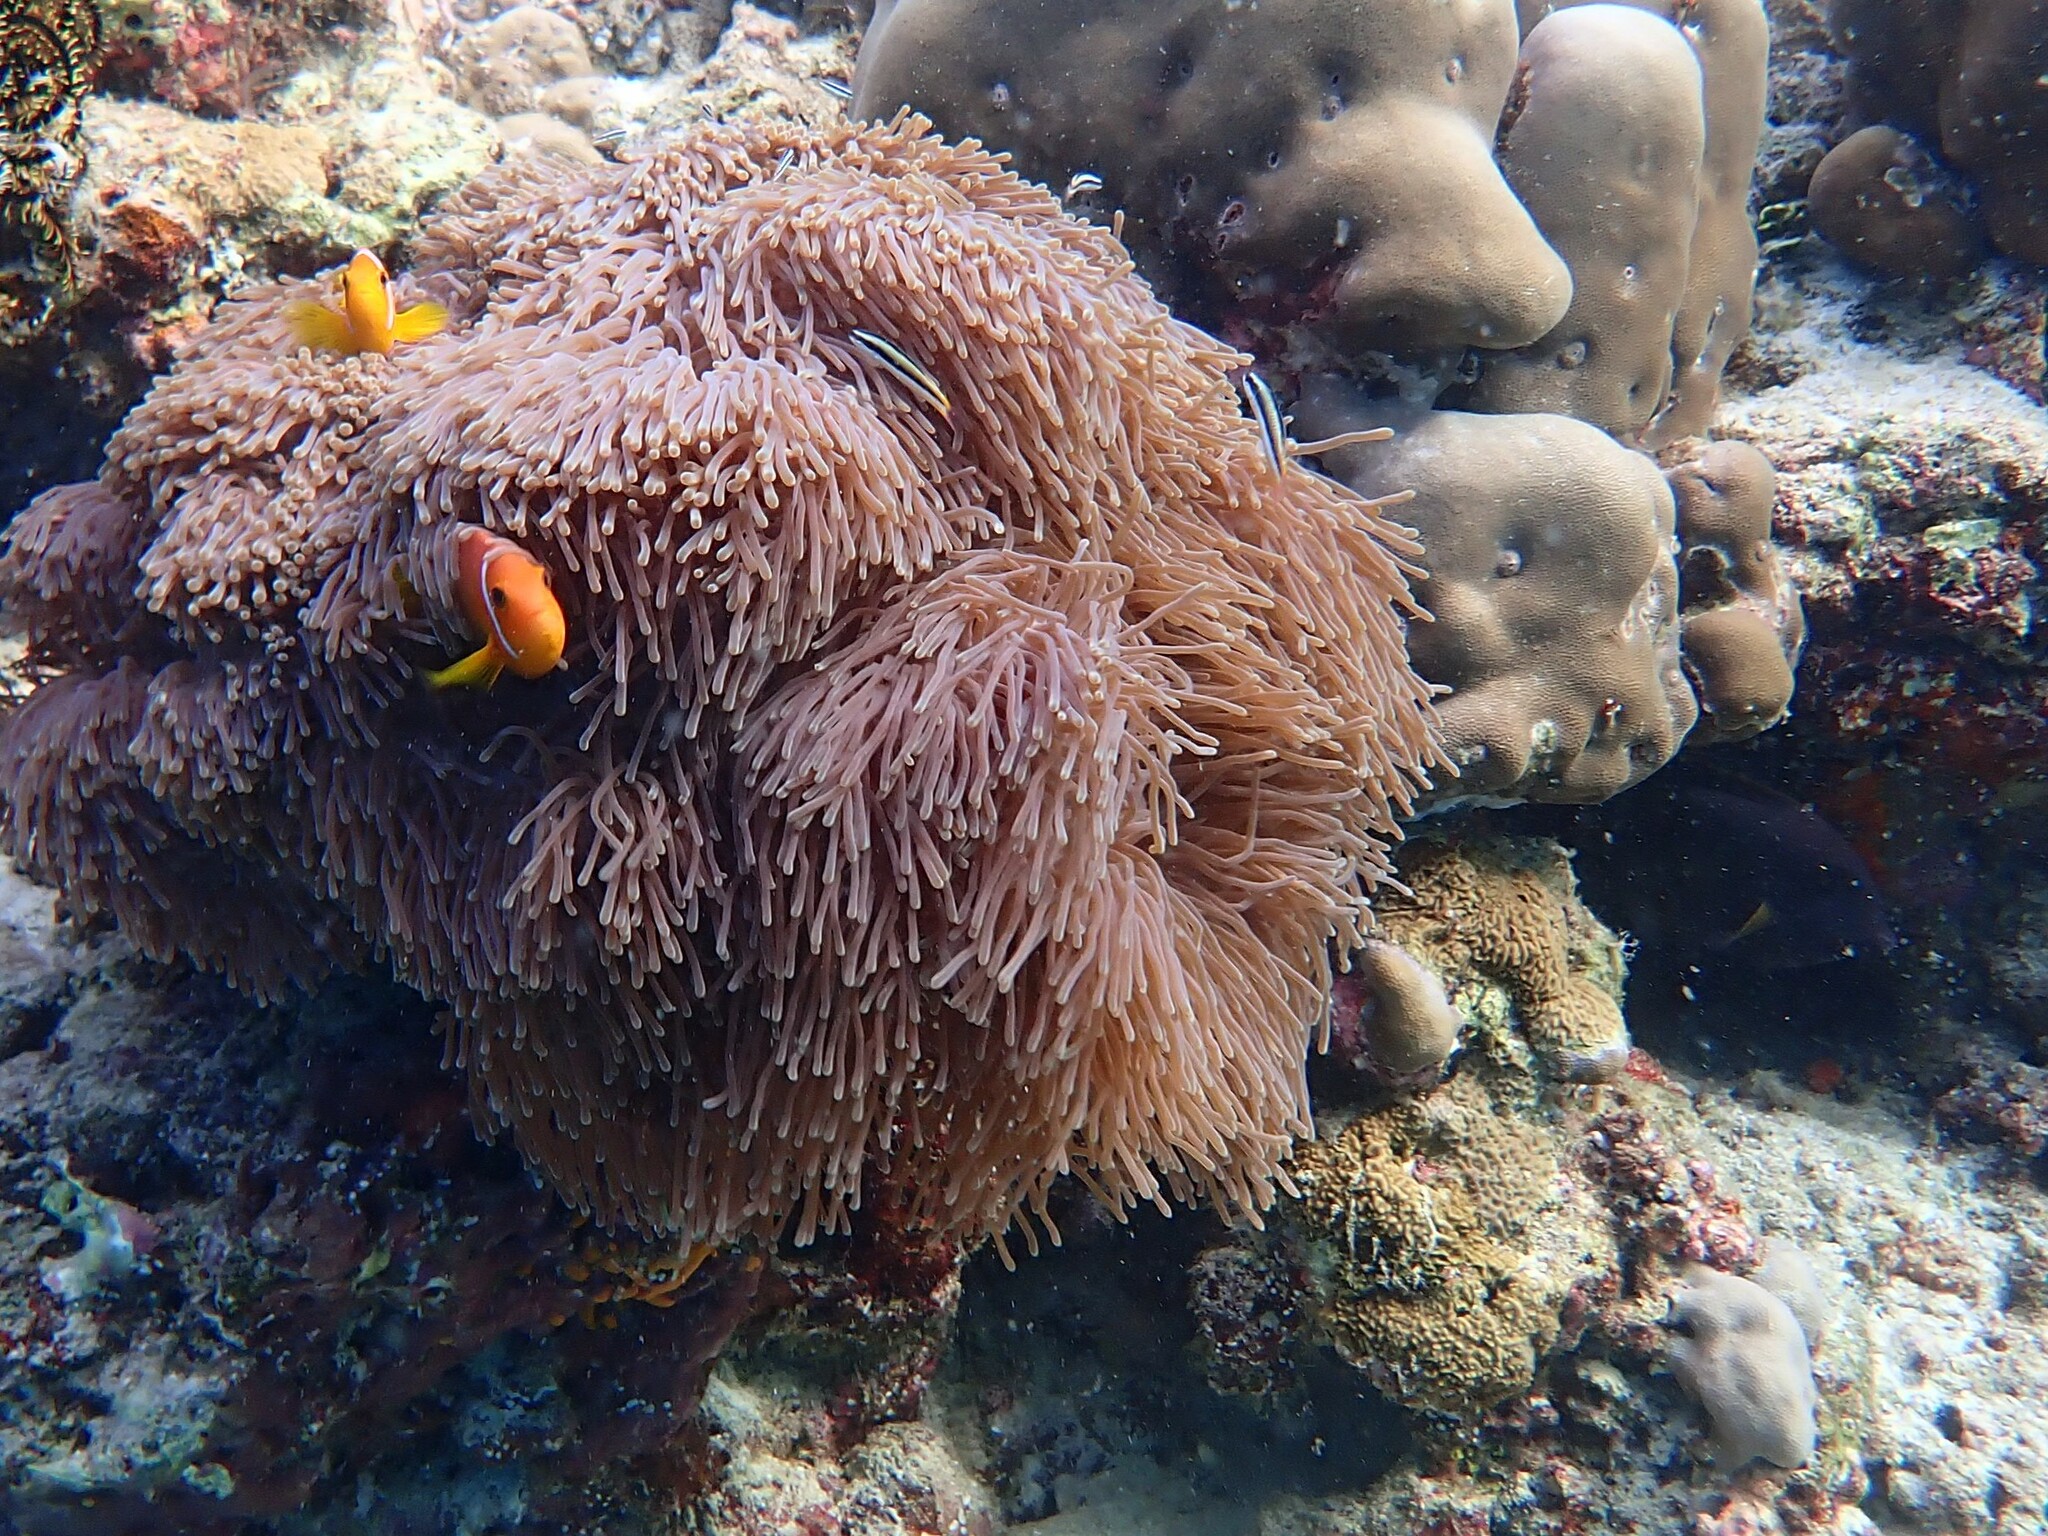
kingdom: Animalia
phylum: Chordata
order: Perciformes
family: Pomacentridae
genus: Amphiprion
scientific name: Amphiprion nigripes
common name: Maldive anemonefish
